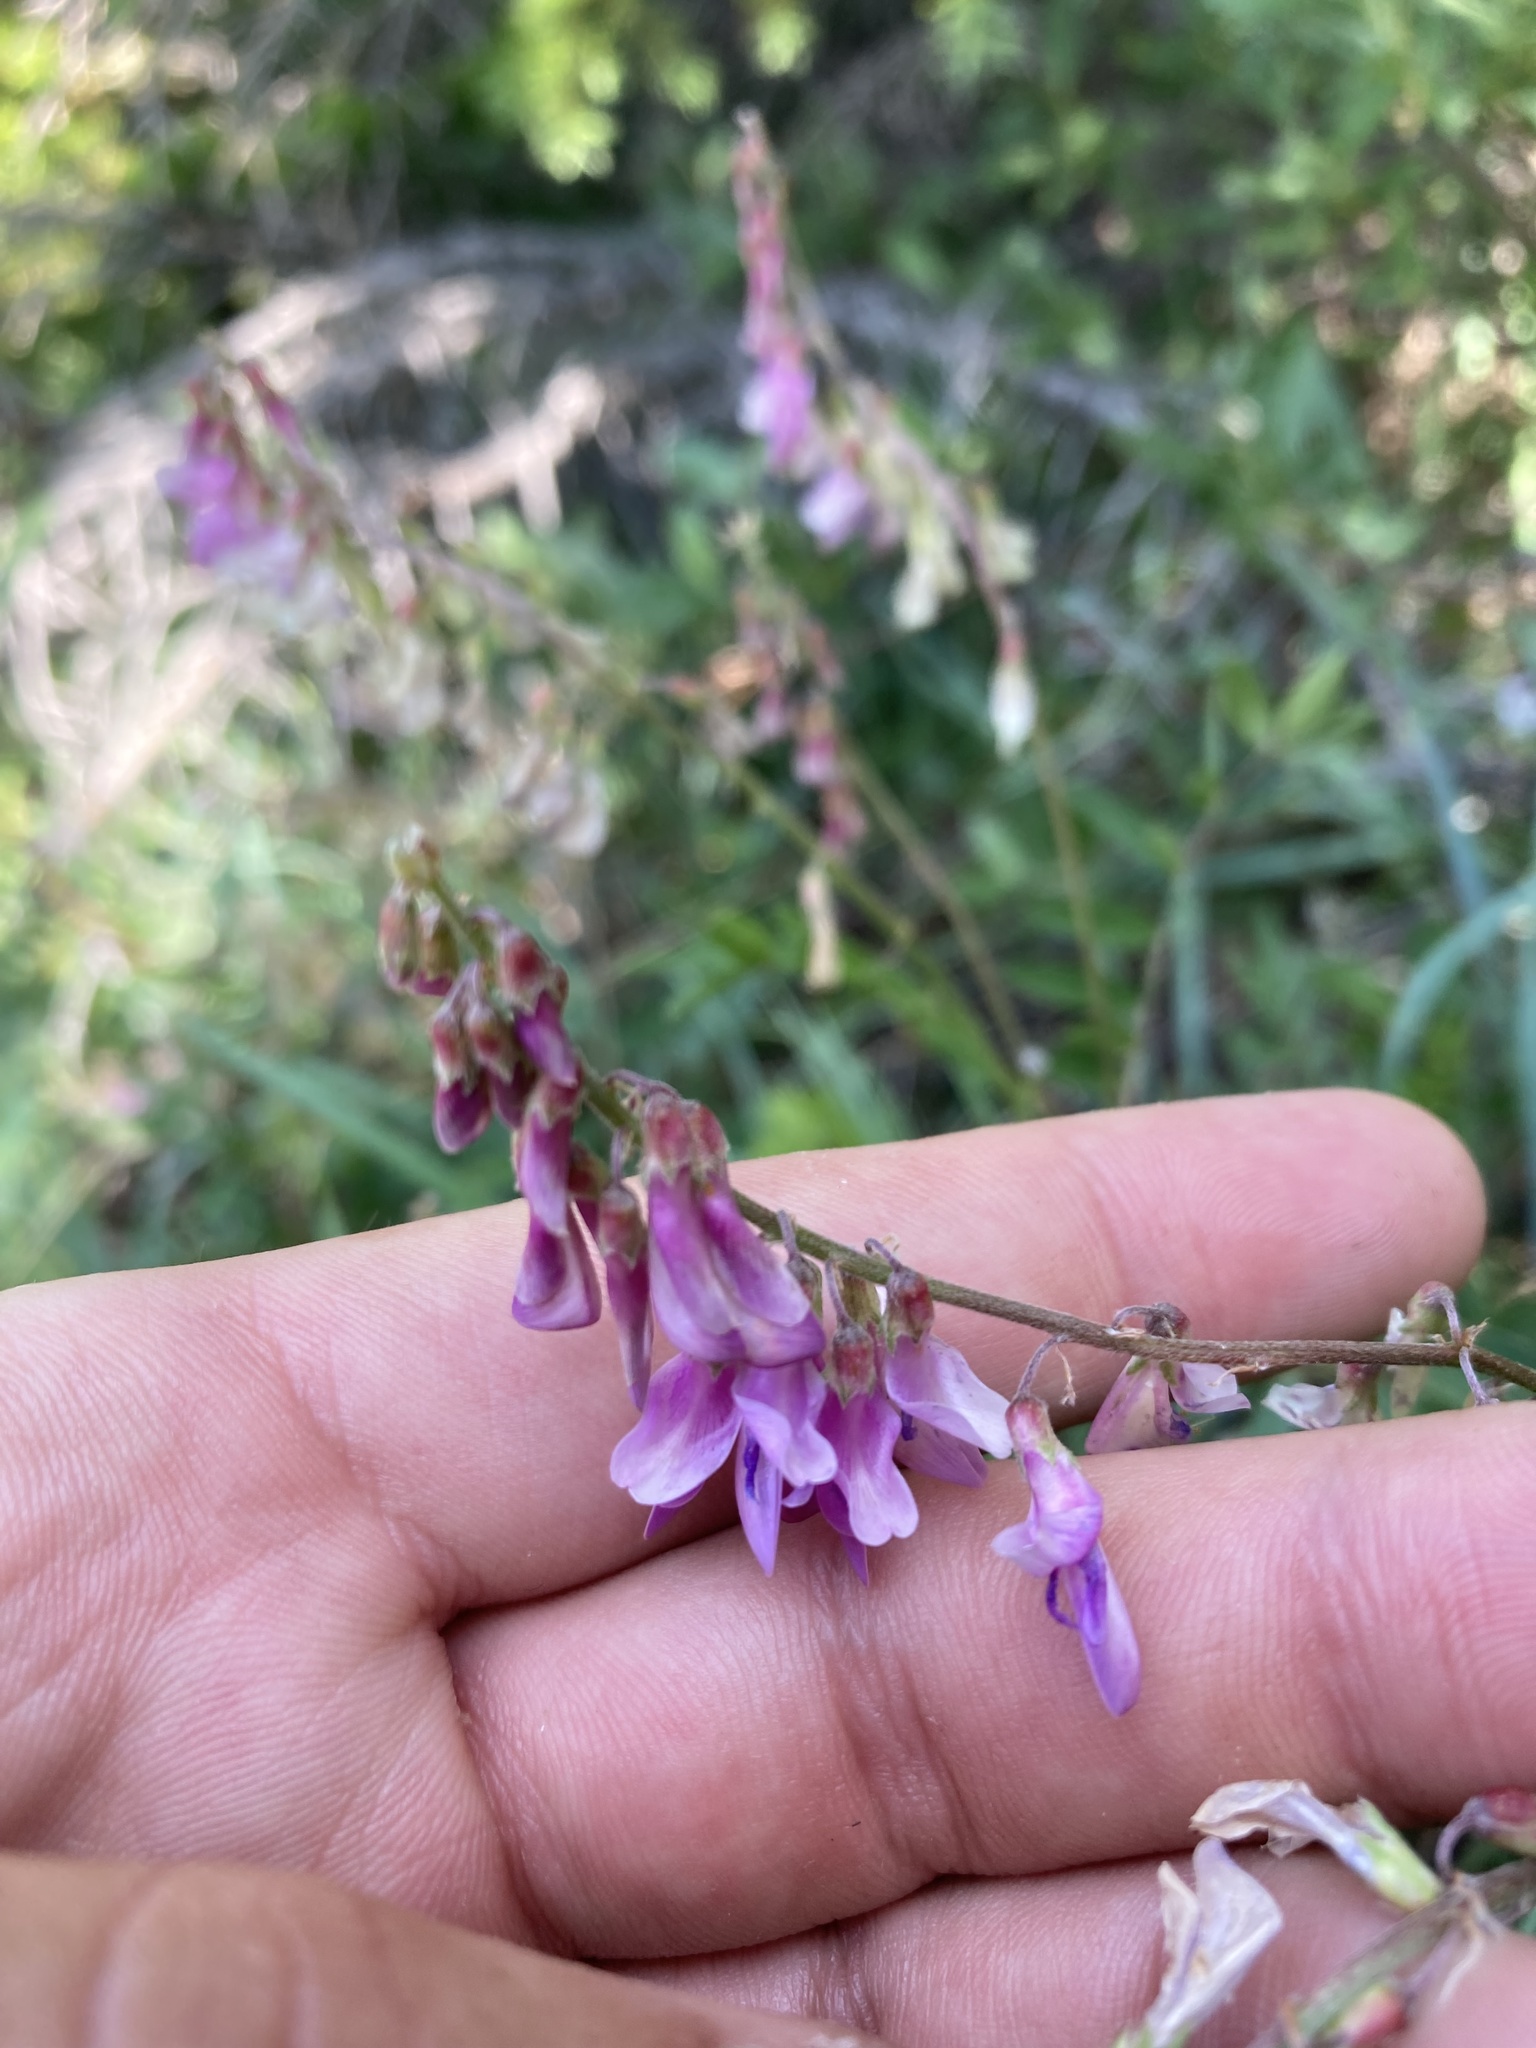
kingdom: Plantae
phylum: Tracheophyta
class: Magnoliopsida
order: Fabales
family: Fabaceae
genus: Hedysarum
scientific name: Hedysarum alpinum
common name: Alpine sweet-vetch
